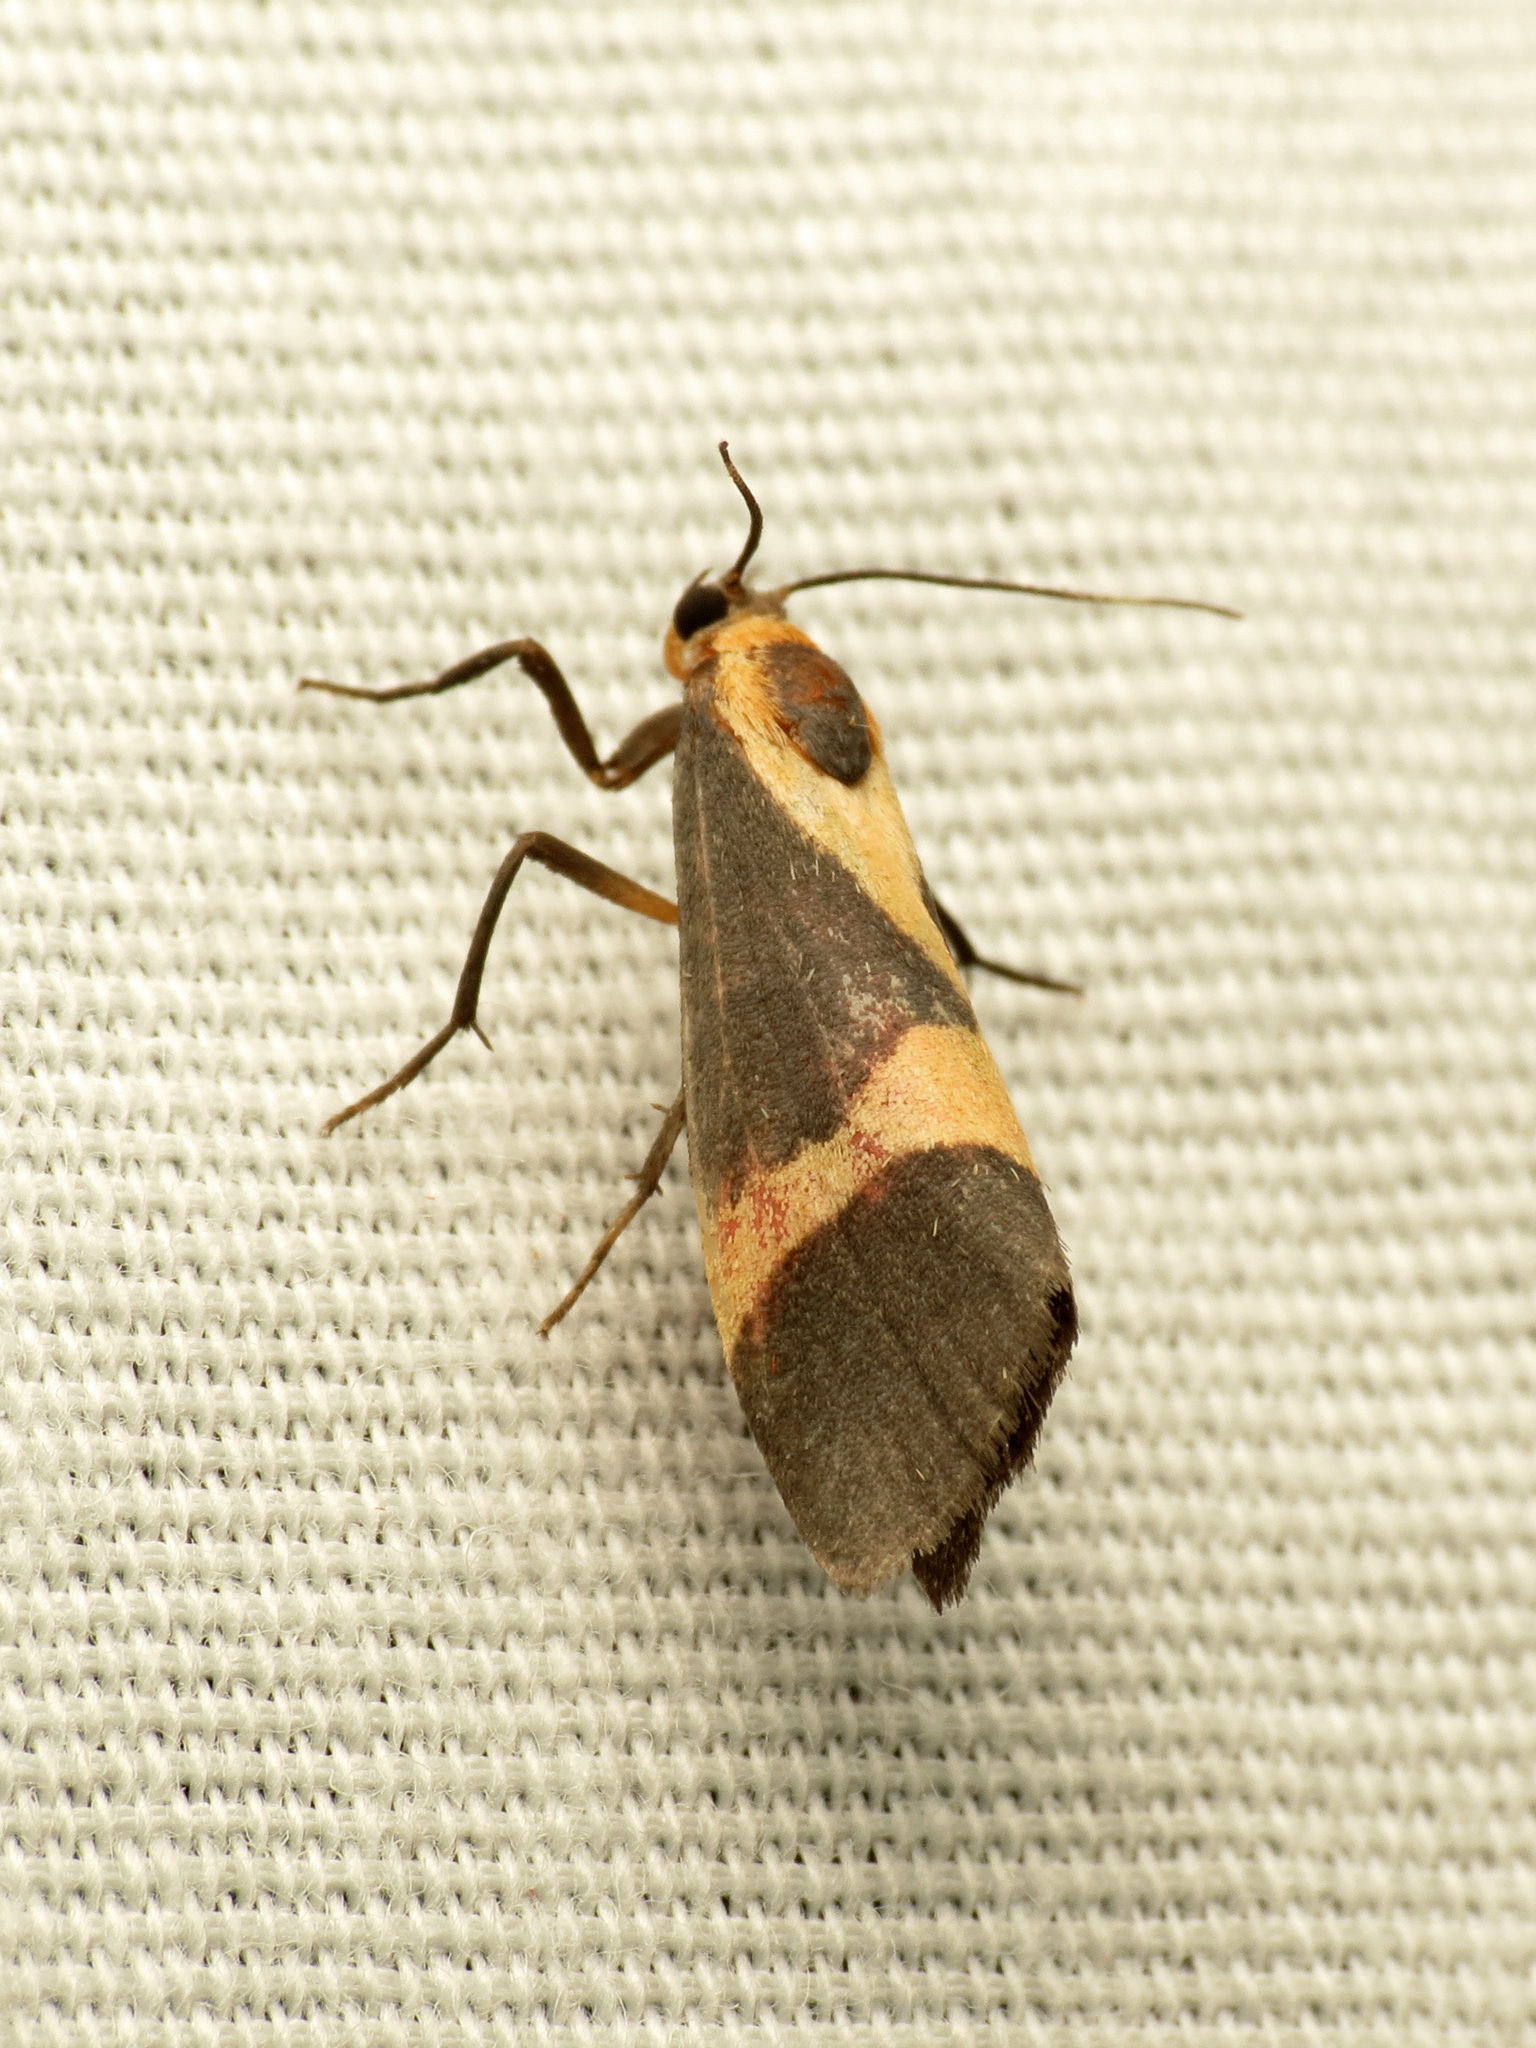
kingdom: Animalia
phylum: Arthropoda
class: Insecta
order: Lepidoptera
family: Erebidae
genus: Cisthene
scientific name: Cisthene tenuifascia
